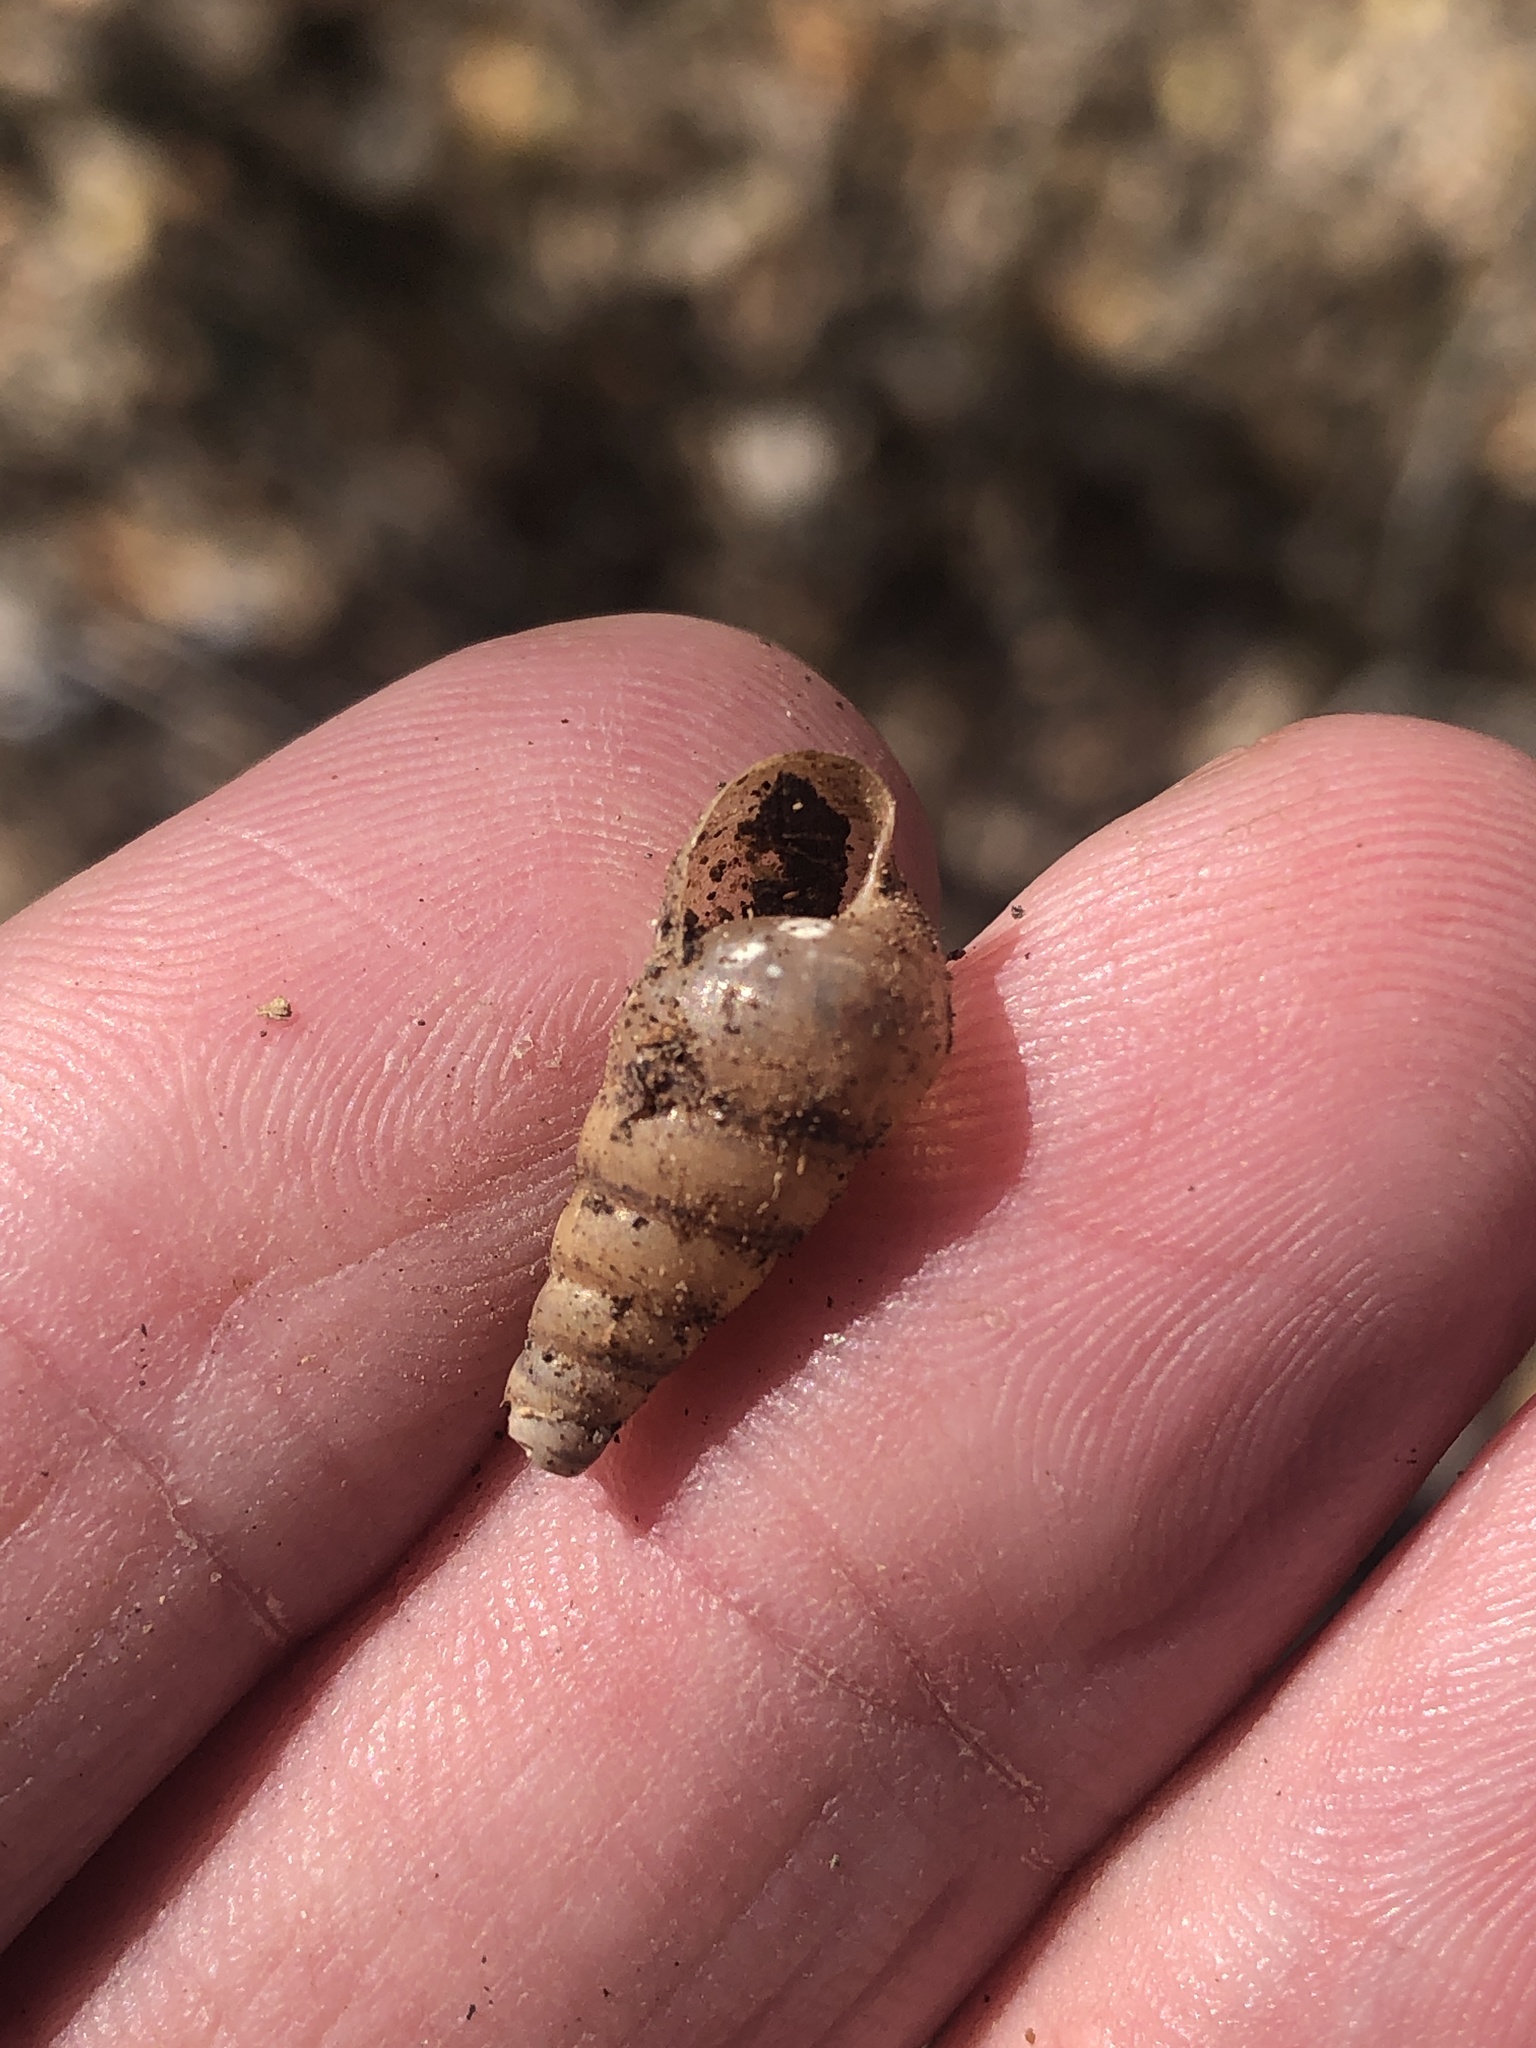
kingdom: Animalia
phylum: Mollusca
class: Gastropoda
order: Stylommatophora
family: Achatinidae
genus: Rumina
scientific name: Rumina decollata
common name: Decollate snail
